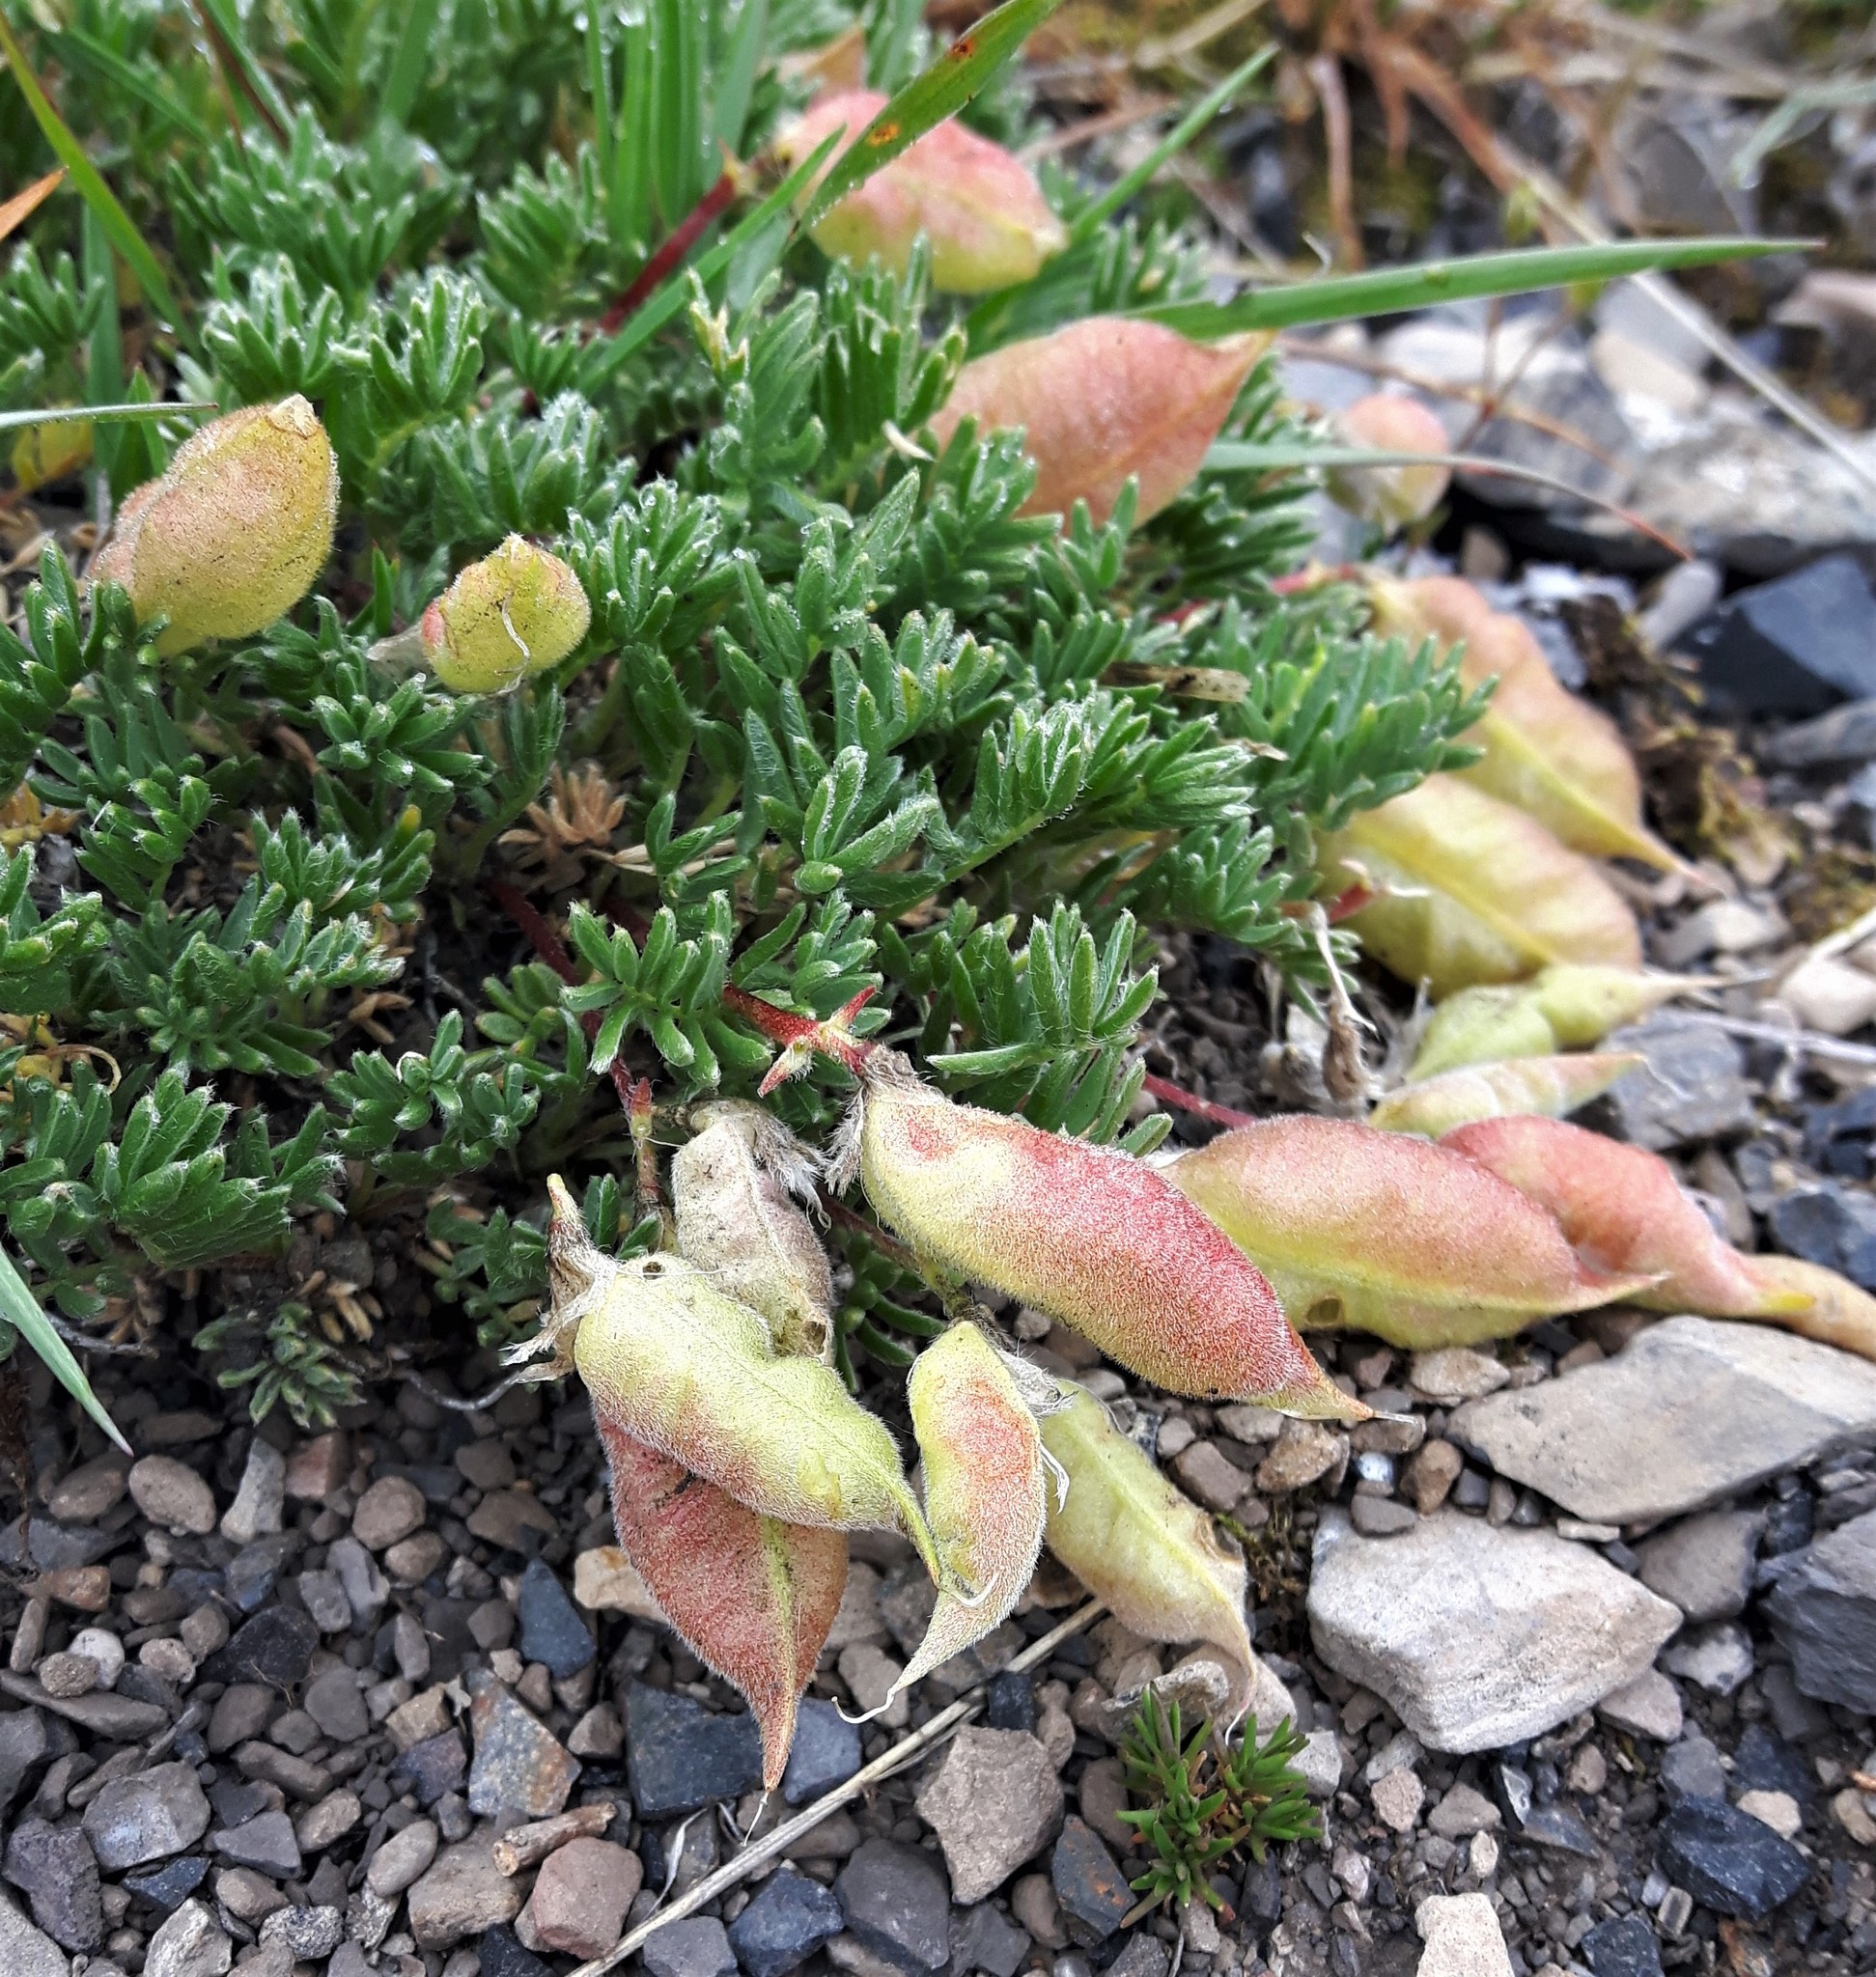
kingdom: Plantae
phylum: Tracheophyta
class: Magnoliopsida
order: Fabales
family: Fabaceae
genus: Oxytropis
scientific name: Oxytropis podocarpa
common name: Gray's oxytrope
